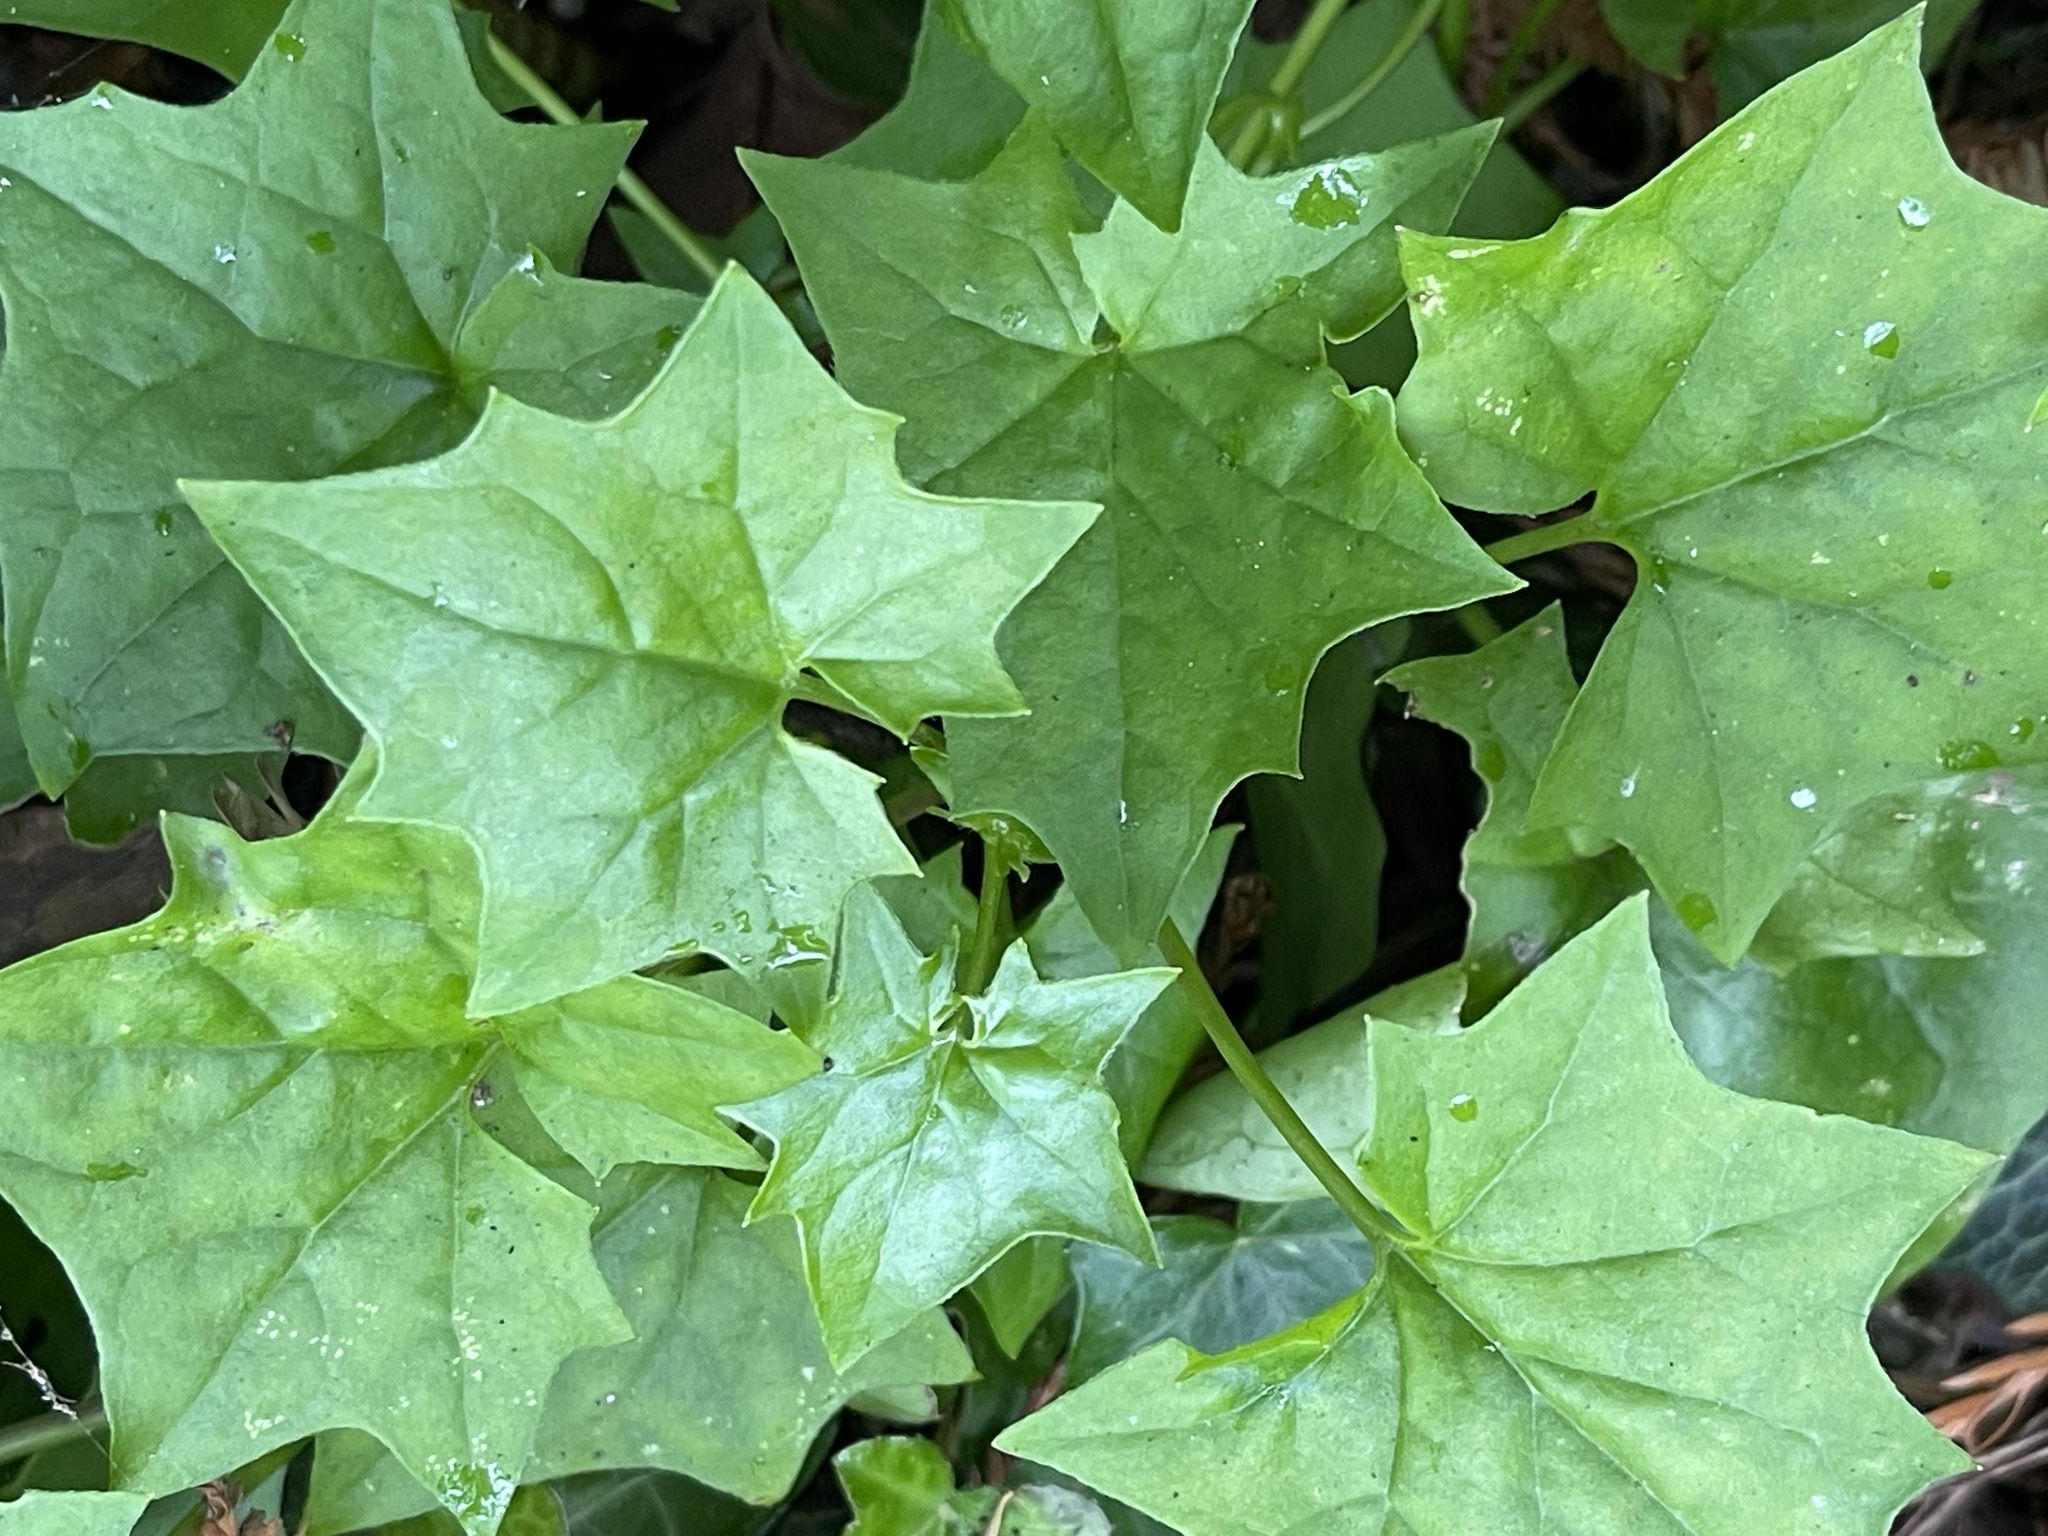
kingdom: Plantae
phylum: Tracheophyta
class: Magnoliopsida
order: Asterales
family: Asteraceae
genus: Delairea
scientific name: Delairea odorata
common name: Cape-ivy
